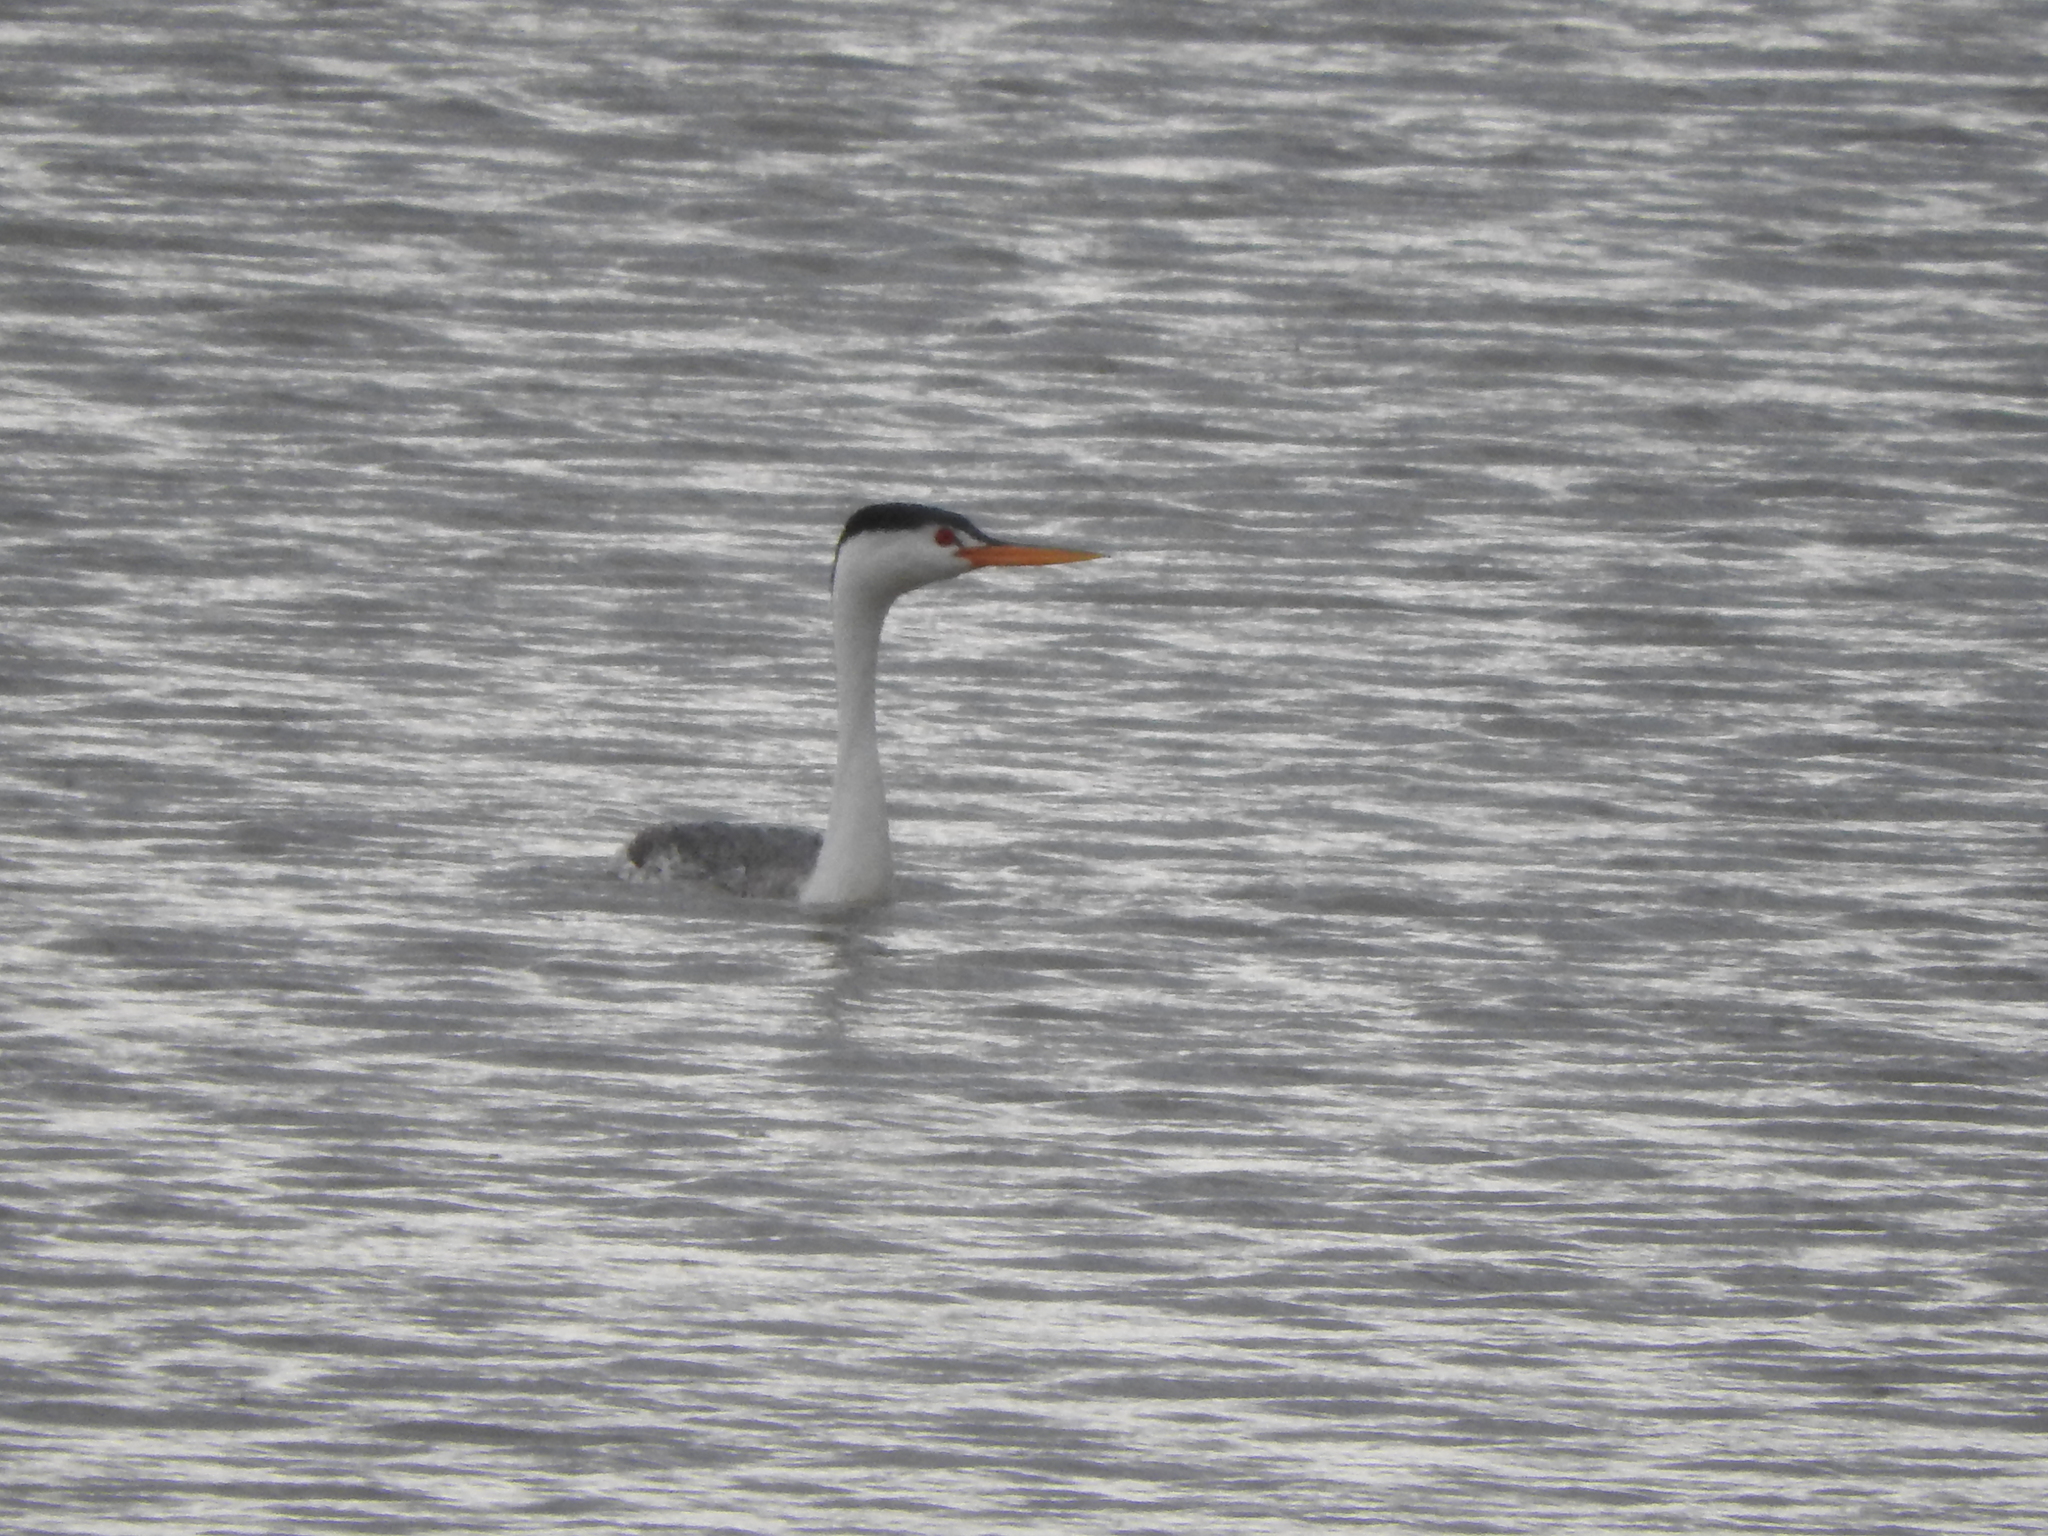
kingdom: Animalia
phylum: Chordata
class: Aves
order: Podicipediformes
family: Podicipedidae
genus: Aechmophorus
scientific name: Aechmophorus clarkii
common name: Clark's grebe
